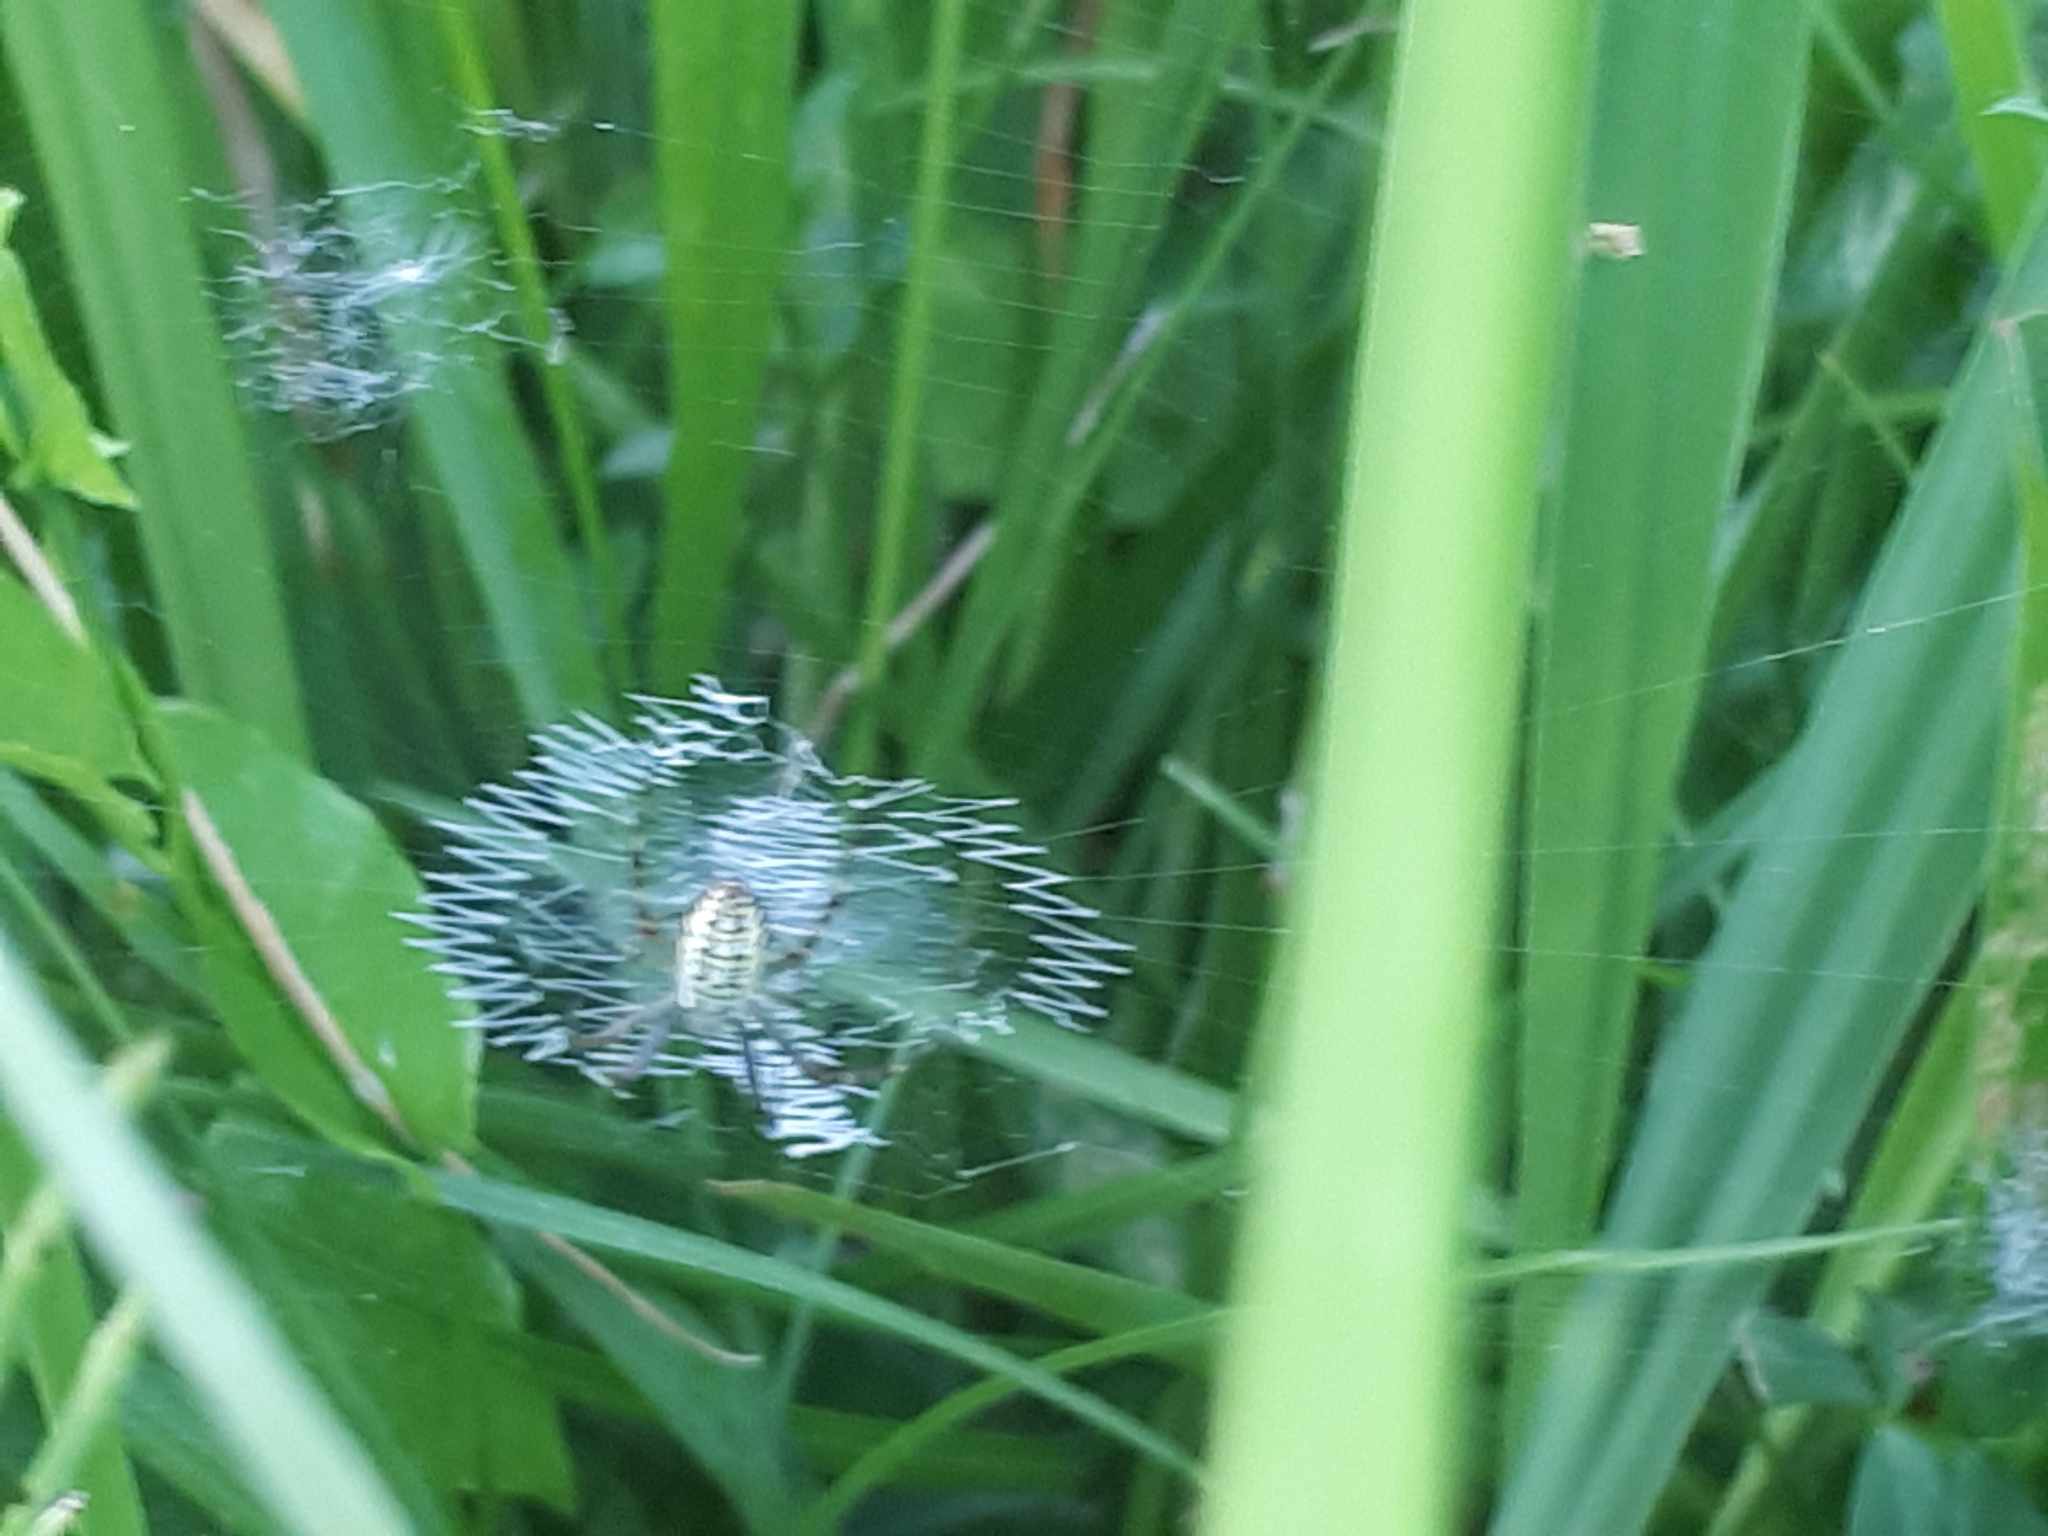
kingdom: Animalia
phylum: Arthropoda
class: Arachnida
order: Araneae
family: Araneidae
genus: Argiope
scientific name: Argiope bruennichi
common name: Wasp spider
